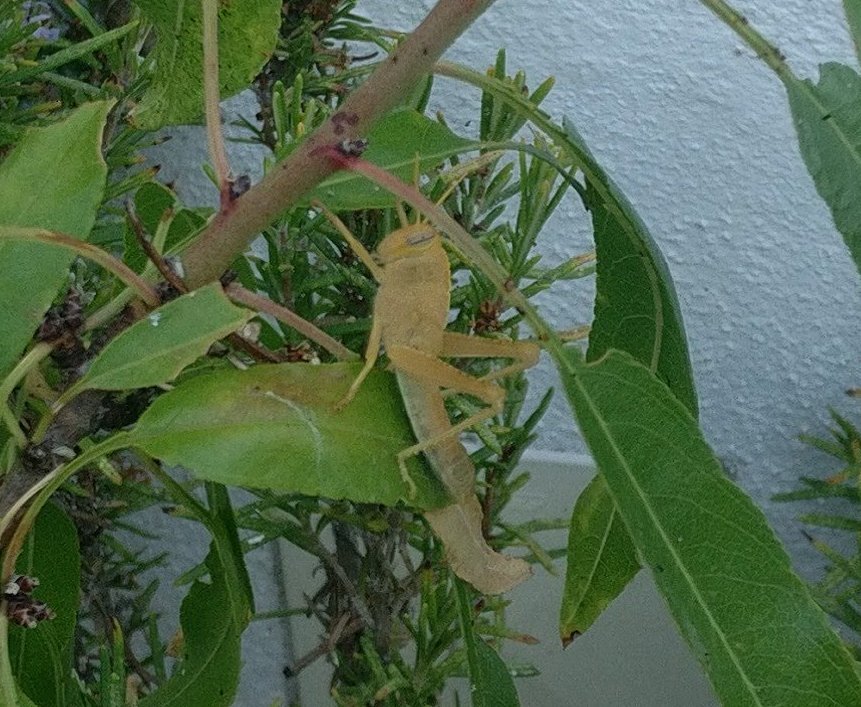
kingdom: Animalia
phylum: Arthropoda
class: Insecta
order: Orthoptera
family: Acrididae
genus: Anacridium
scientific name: Anacridium aegyptium
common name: Egyptian grasshopper
